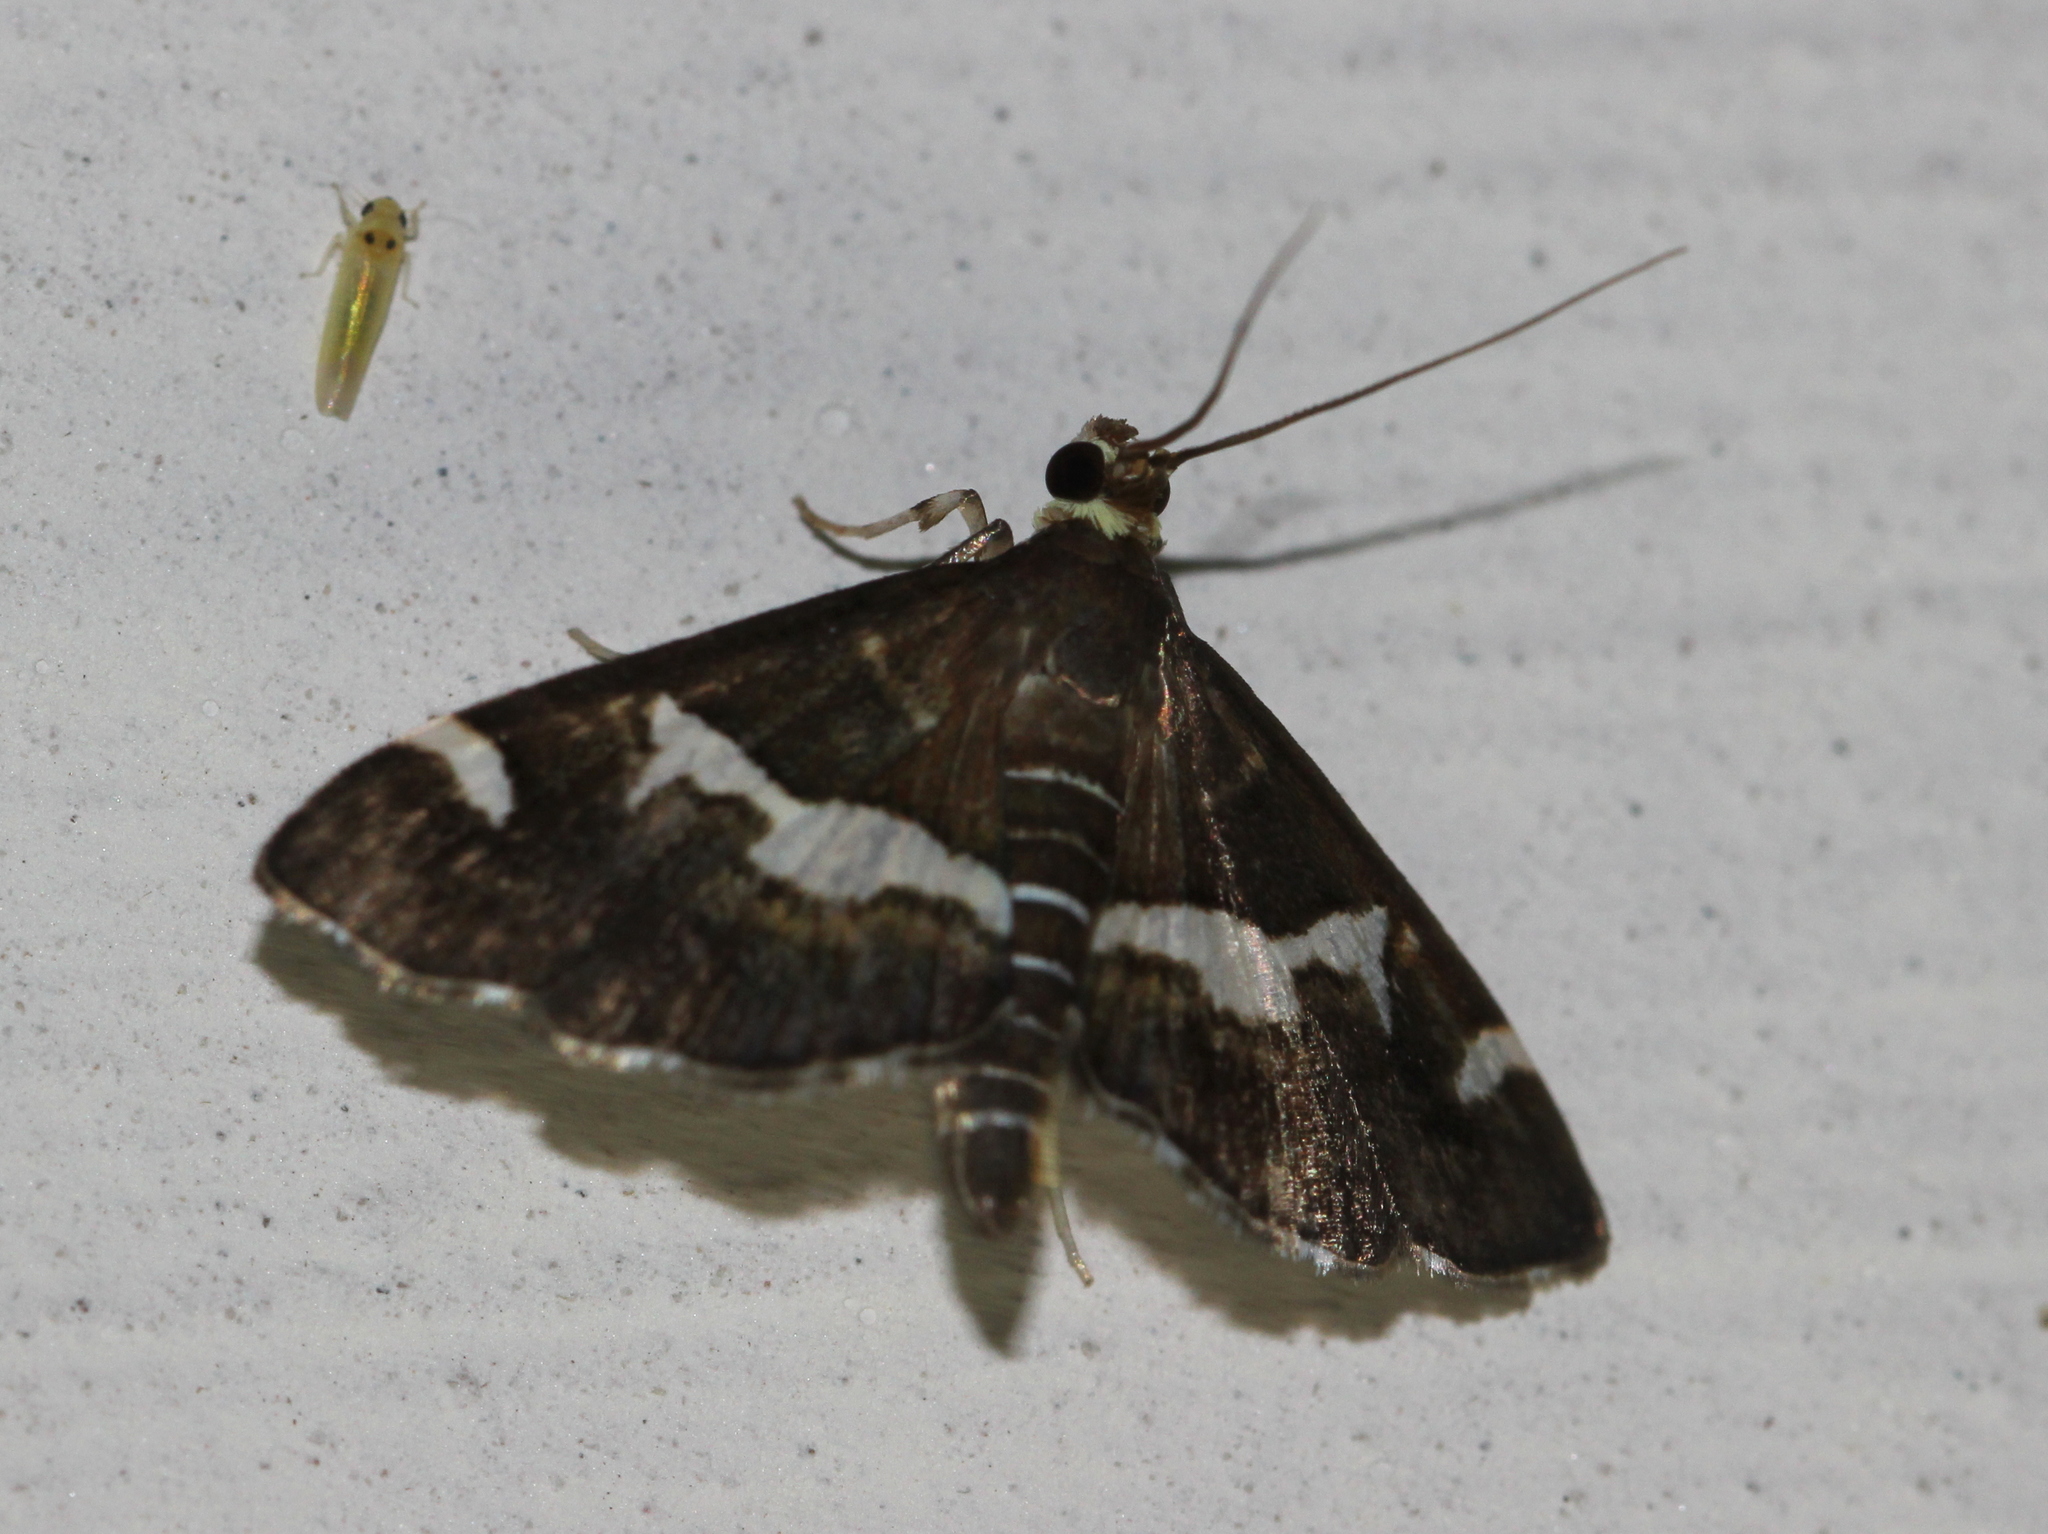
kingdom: Animalia
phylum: Arthropoda
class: Insecta
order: Lepidoptera
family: Crambidae
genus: Spoladea
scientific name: Spoladea recurvalis
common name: Beet webworm moth
